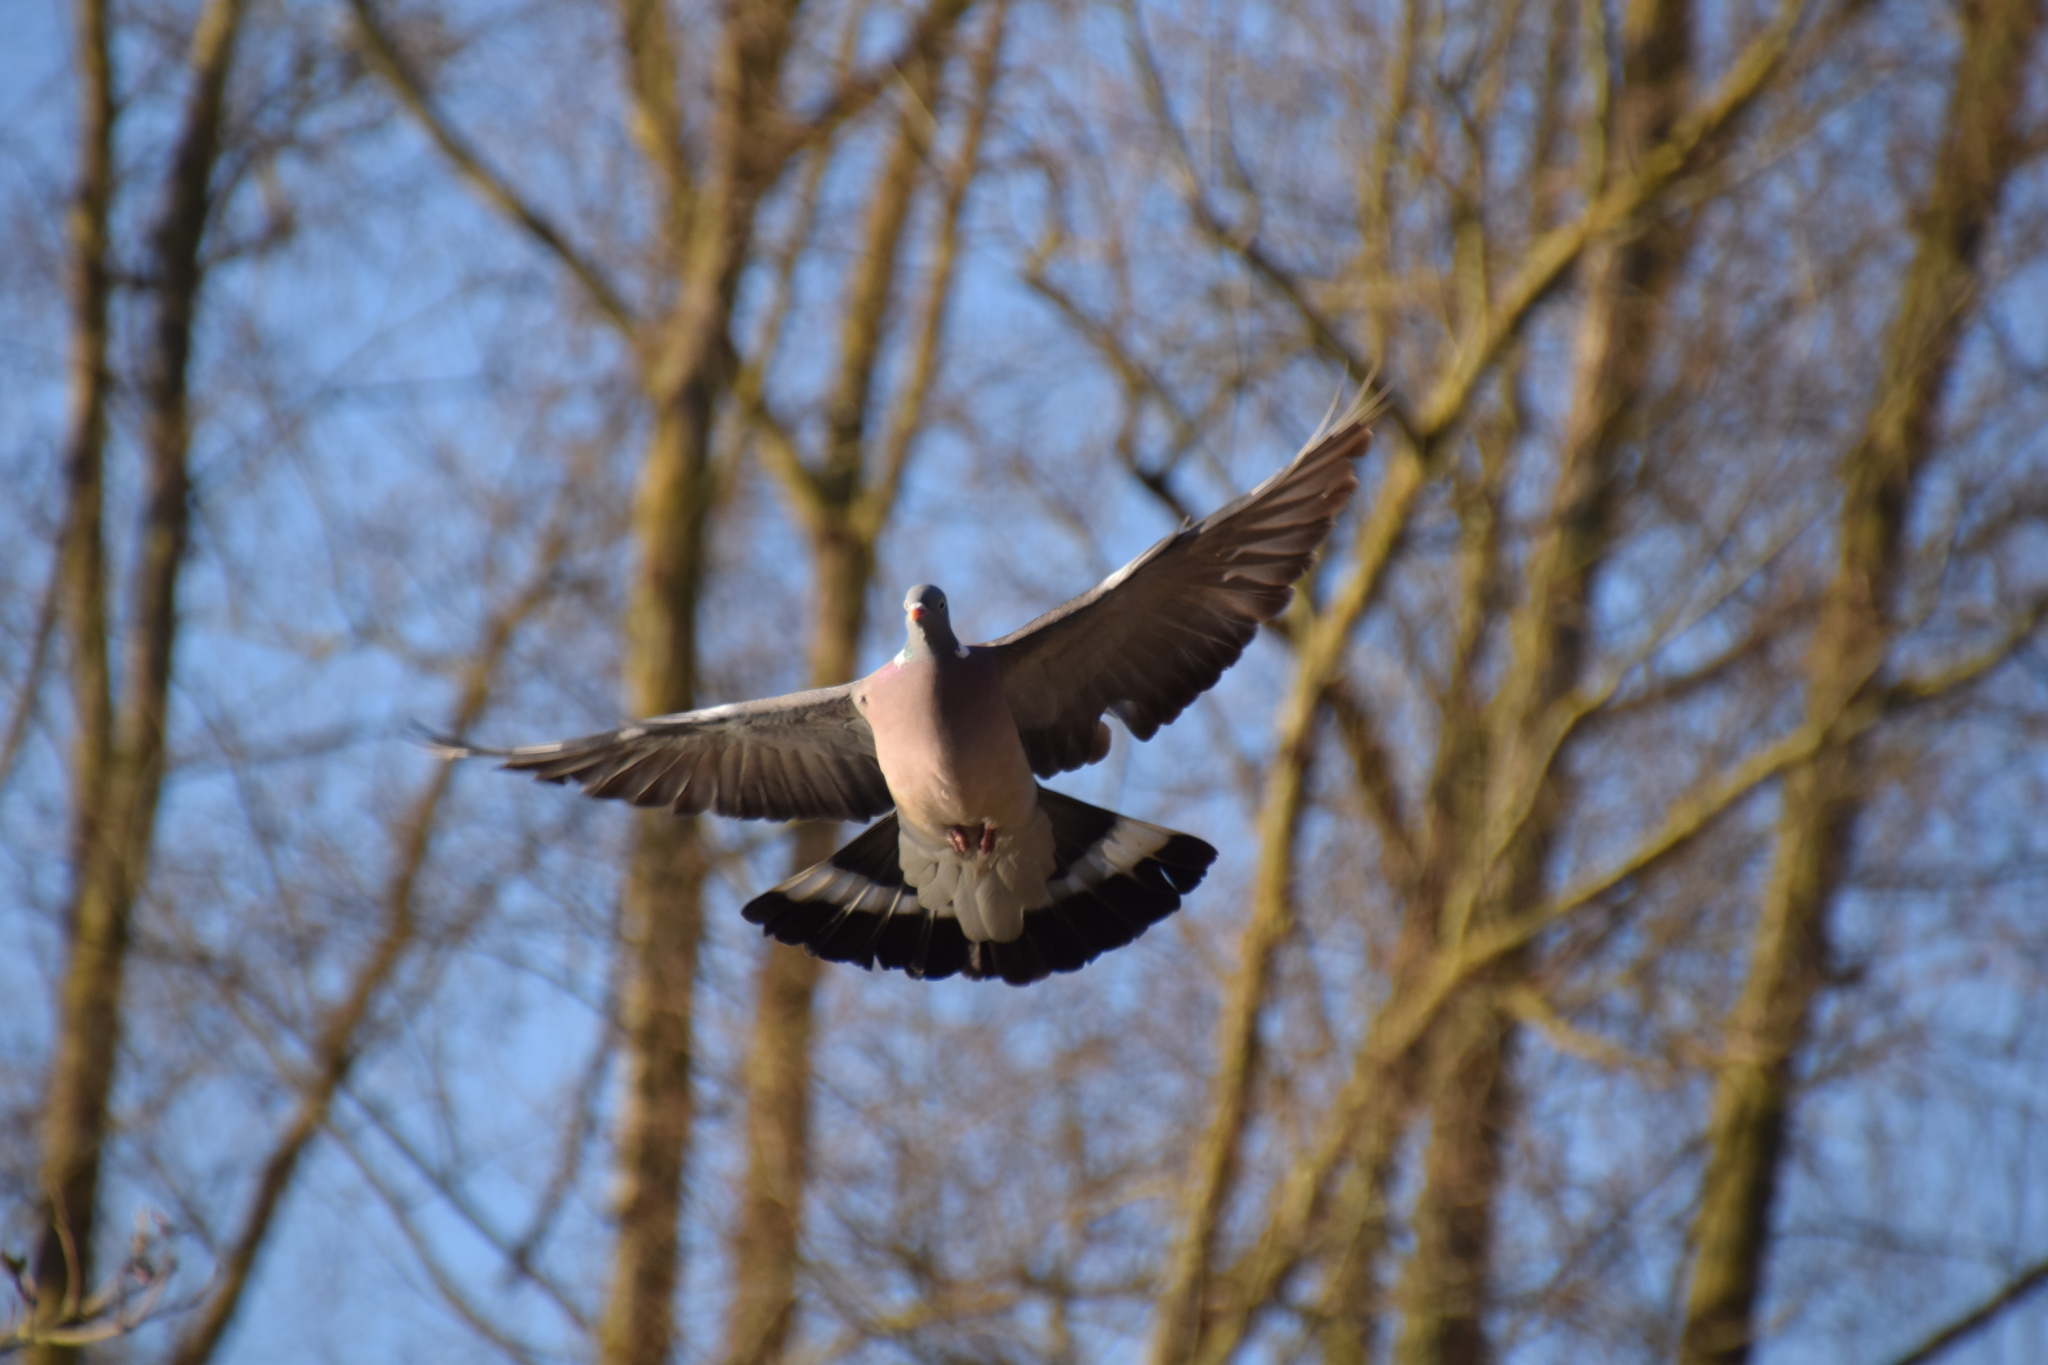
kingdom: Animalia
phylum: Chordata
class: Aves
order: Columbiformes
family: Columbidae
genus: Columba
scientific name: Columba palumbus
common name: Common wood pigeon
